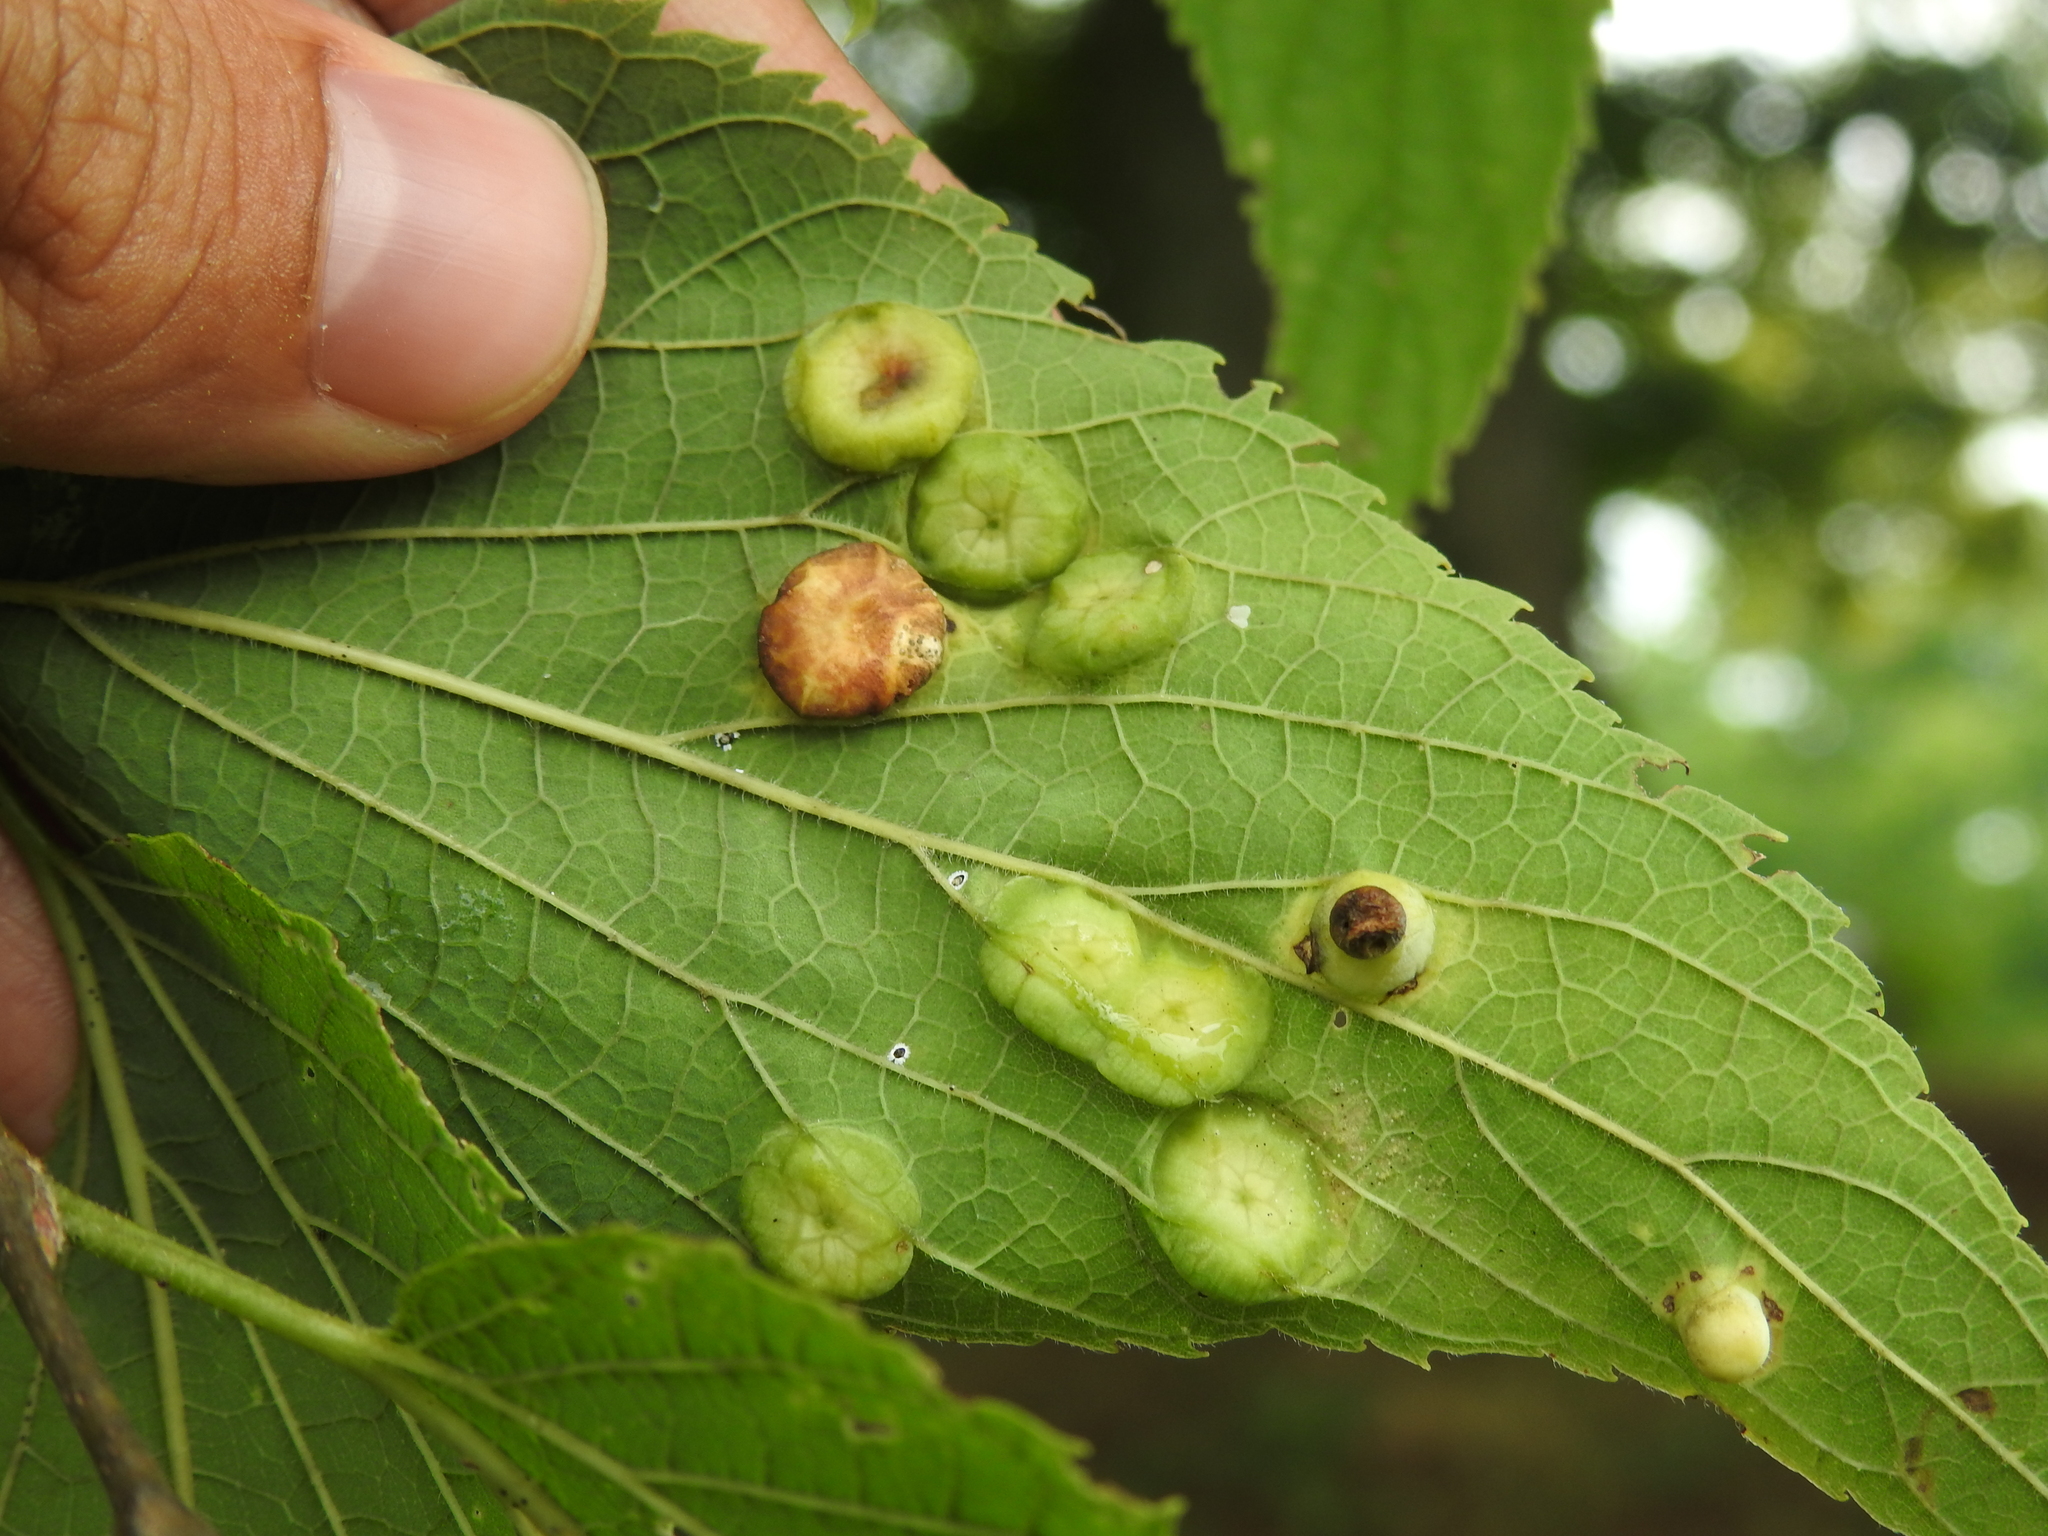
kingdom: Animalia
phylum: Arthropoda
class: Insecta
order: Hemiptera
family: Aphalaridae
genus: Pachypsylla
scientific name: Pachypsylla celtidisumbilicus
